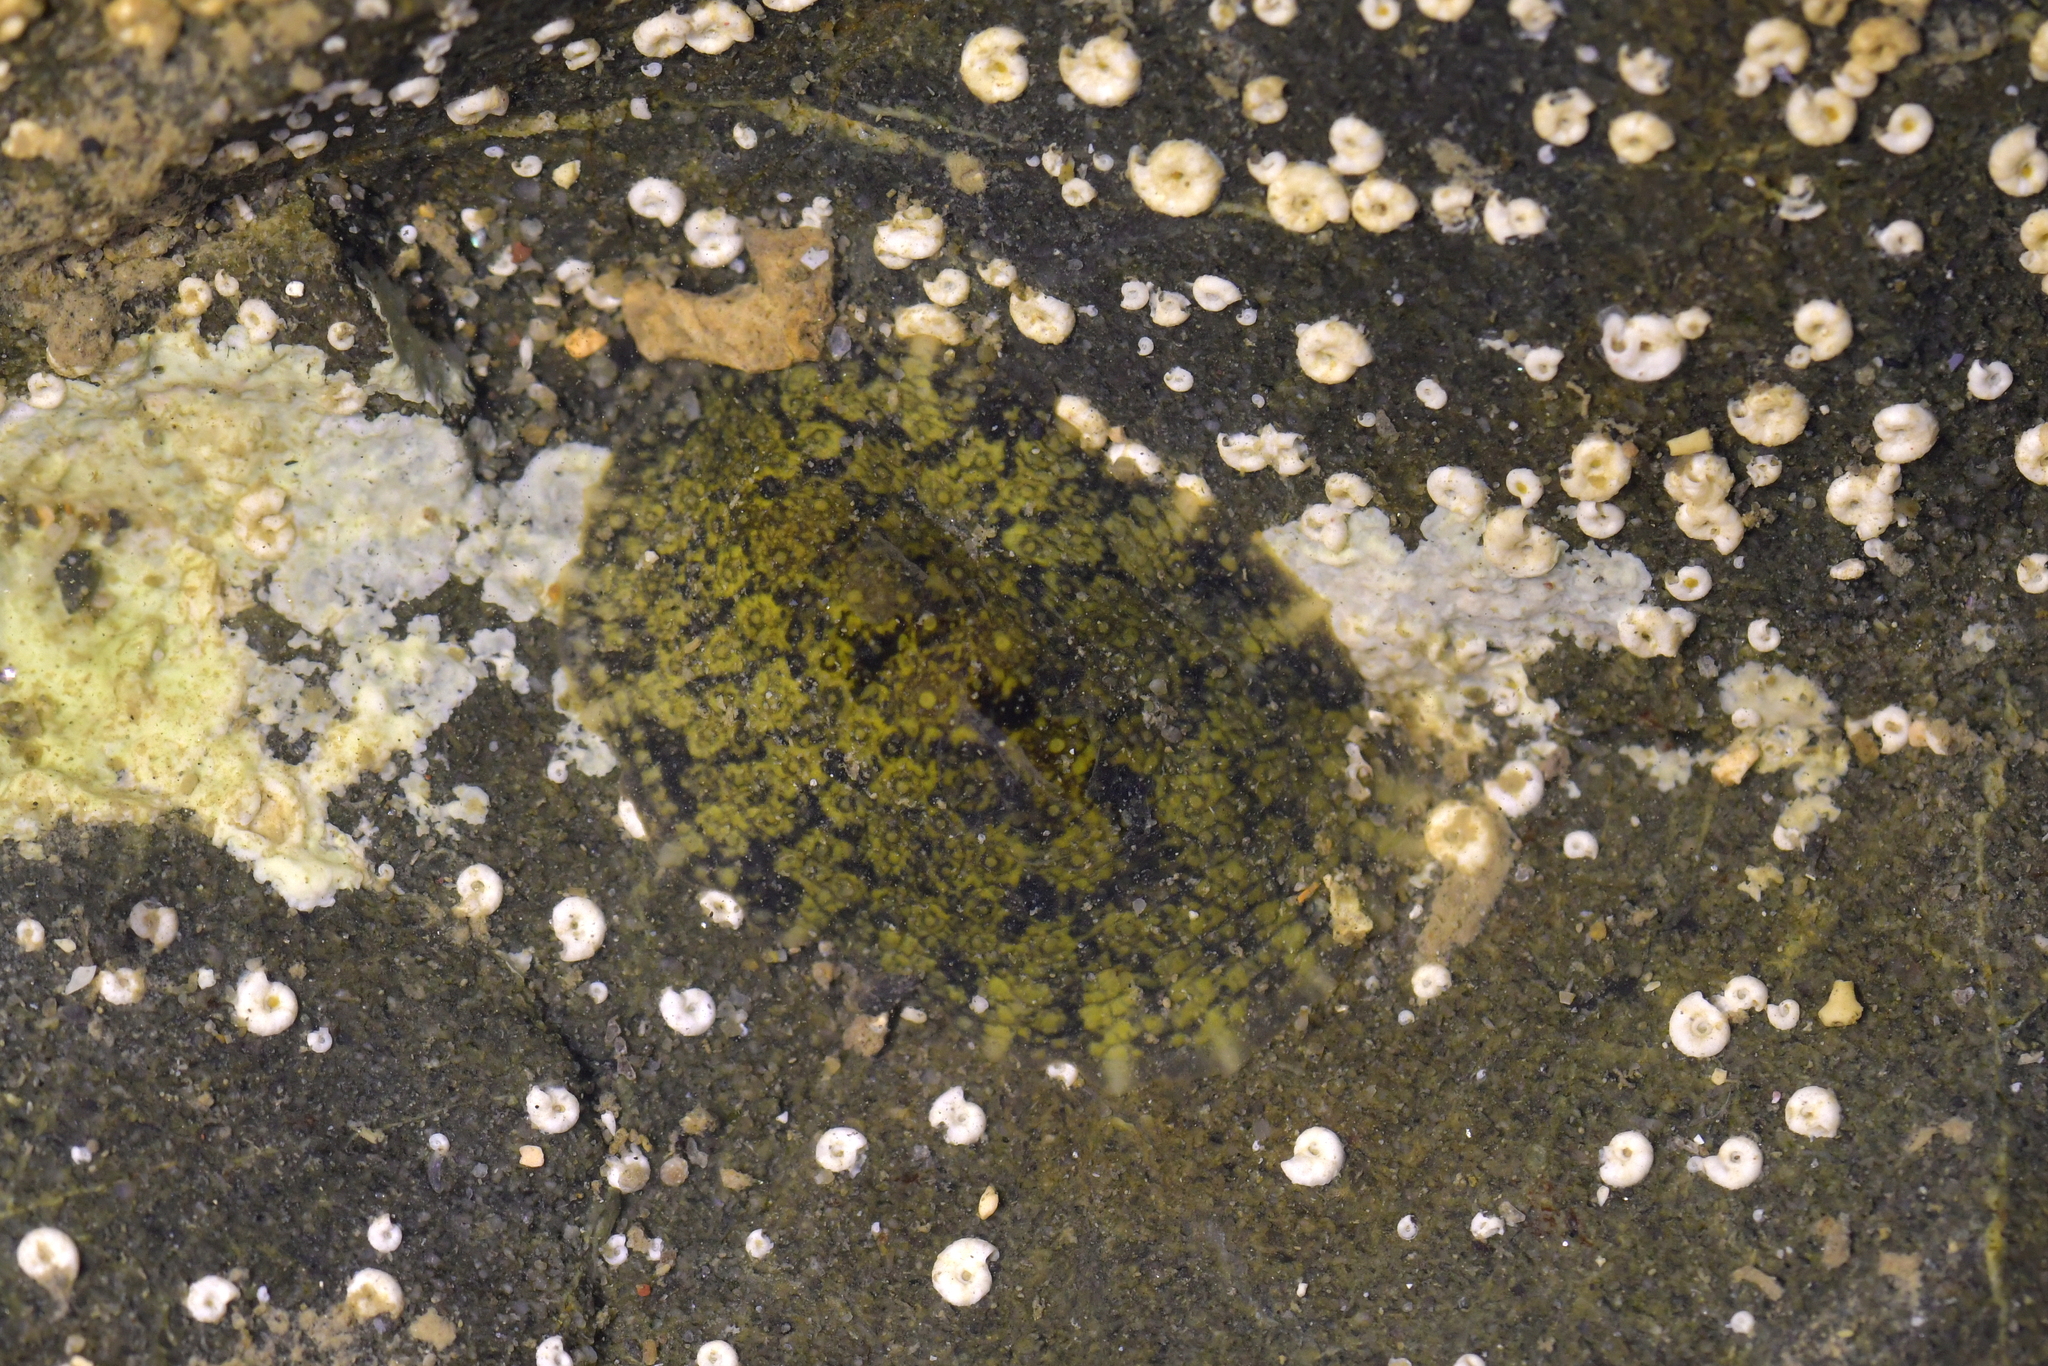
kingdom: Animalia
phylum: Mollusca
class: Gastropoda
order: Systellommatophora
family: Onchidiidae
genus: Onchidella
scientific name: Onchidella nigricans
